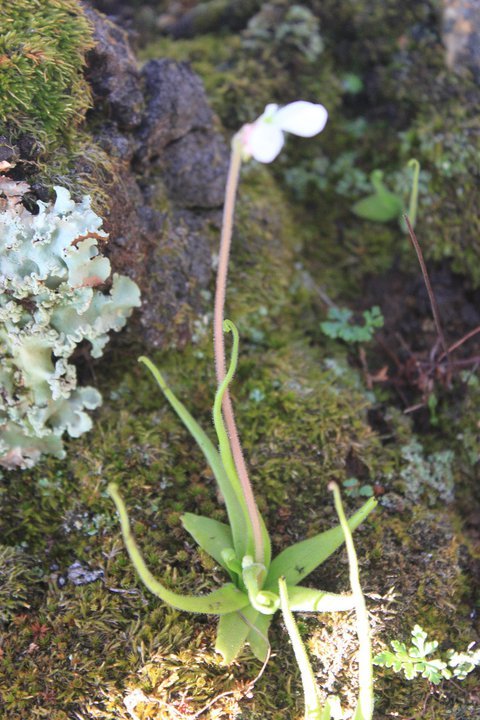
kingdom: Plantae
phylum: Tracheophyta
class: Magnoliopsida
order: Lamiales
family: Lentibulariaceae
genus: Pinguicula
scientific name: Pinguicula heterophylla
